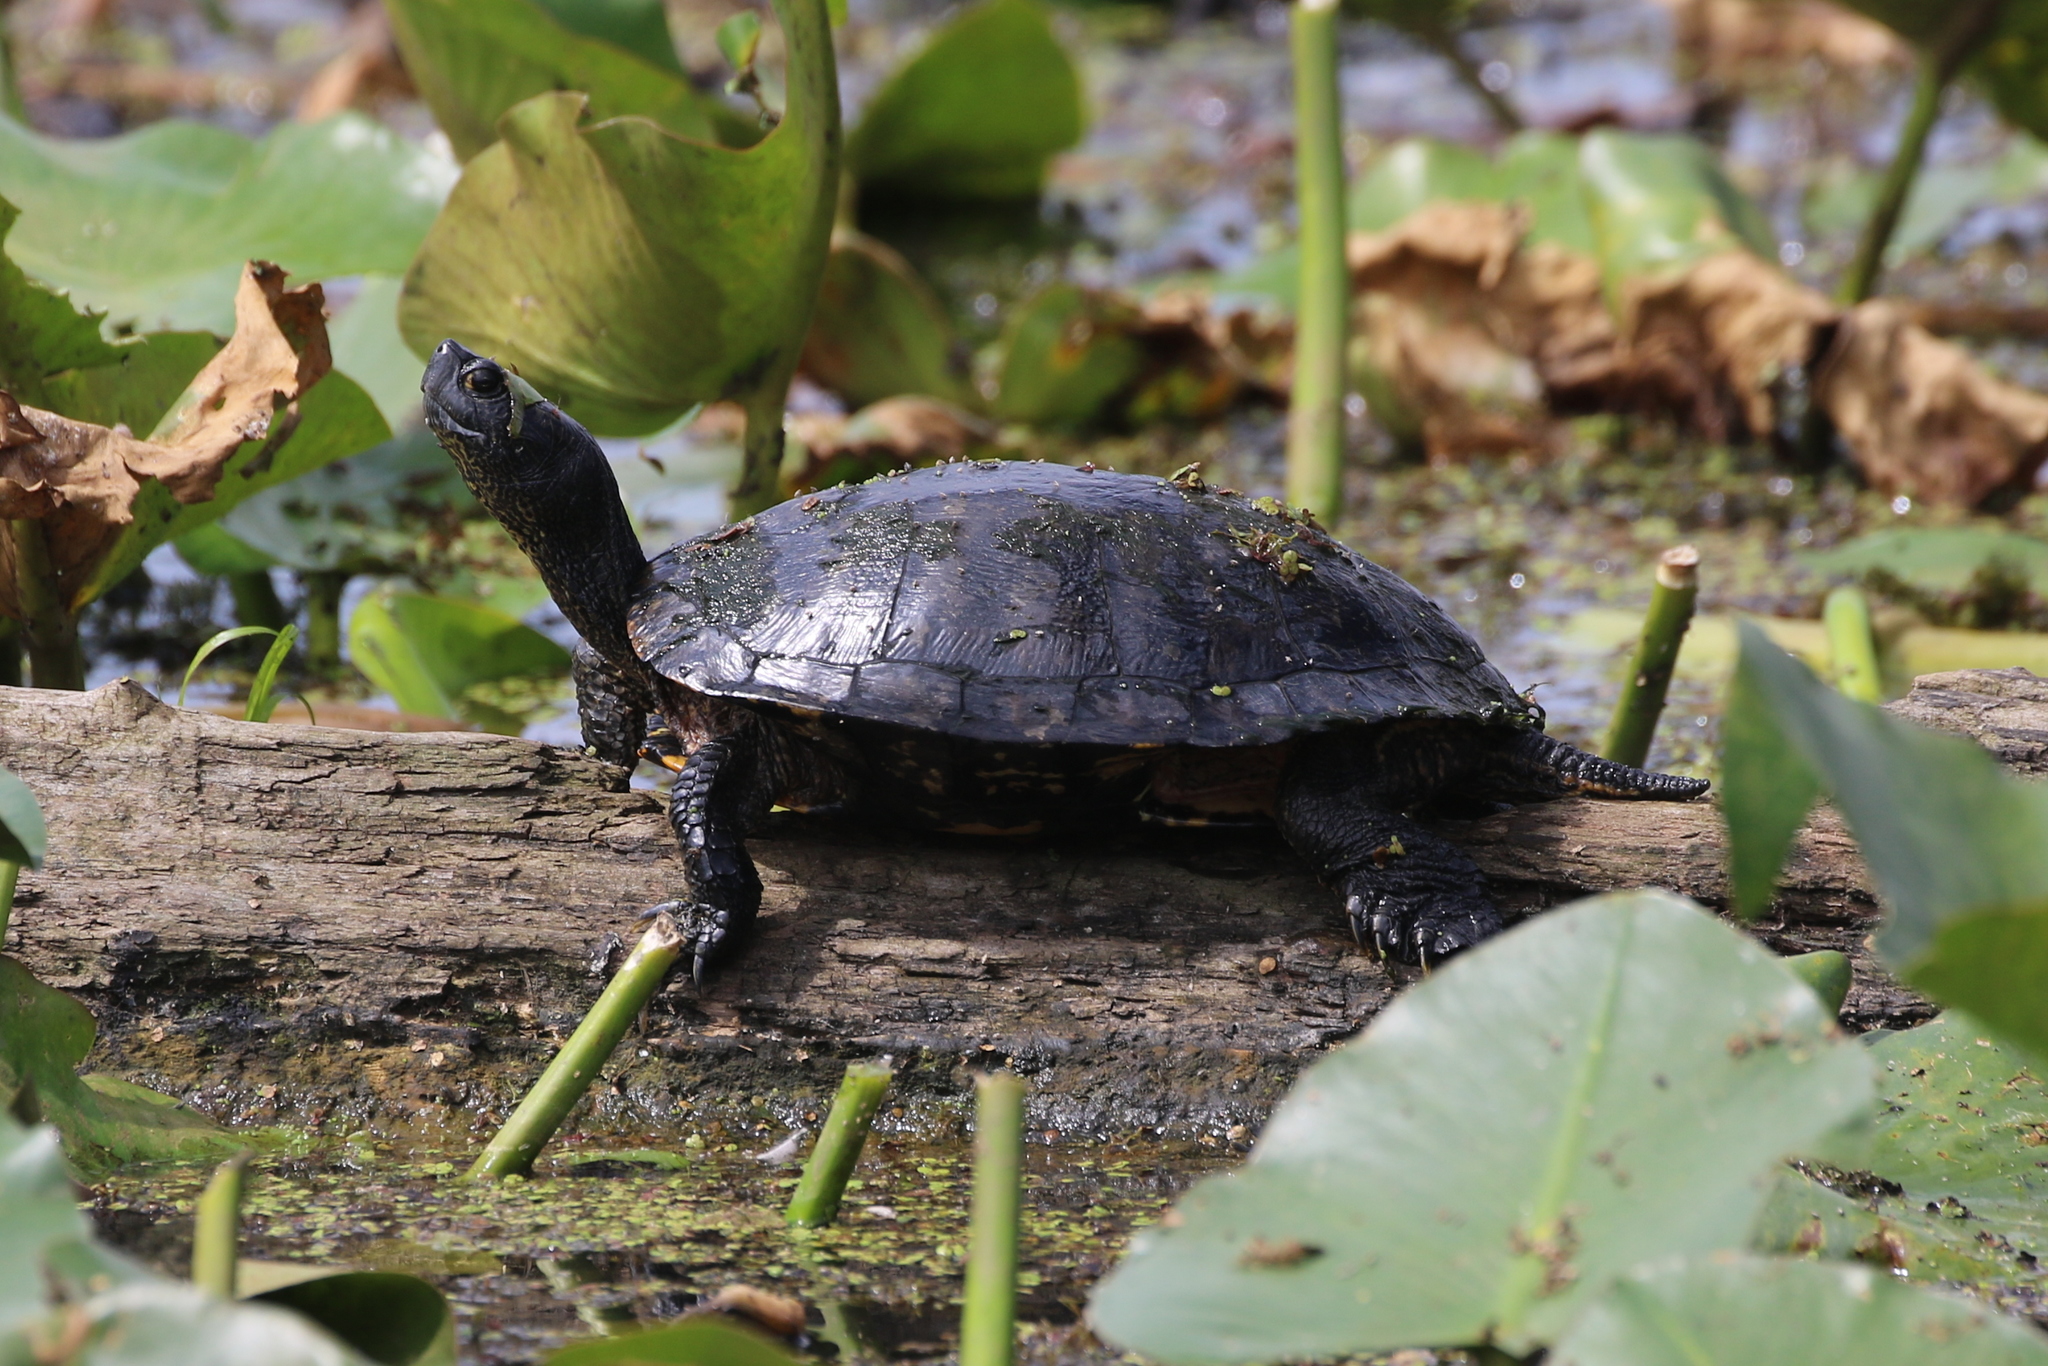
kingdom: Animalia
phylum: Chordata
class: Testudines
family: Emydidae
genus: Trachemys
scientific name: Trachemys scripta
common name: Slider
